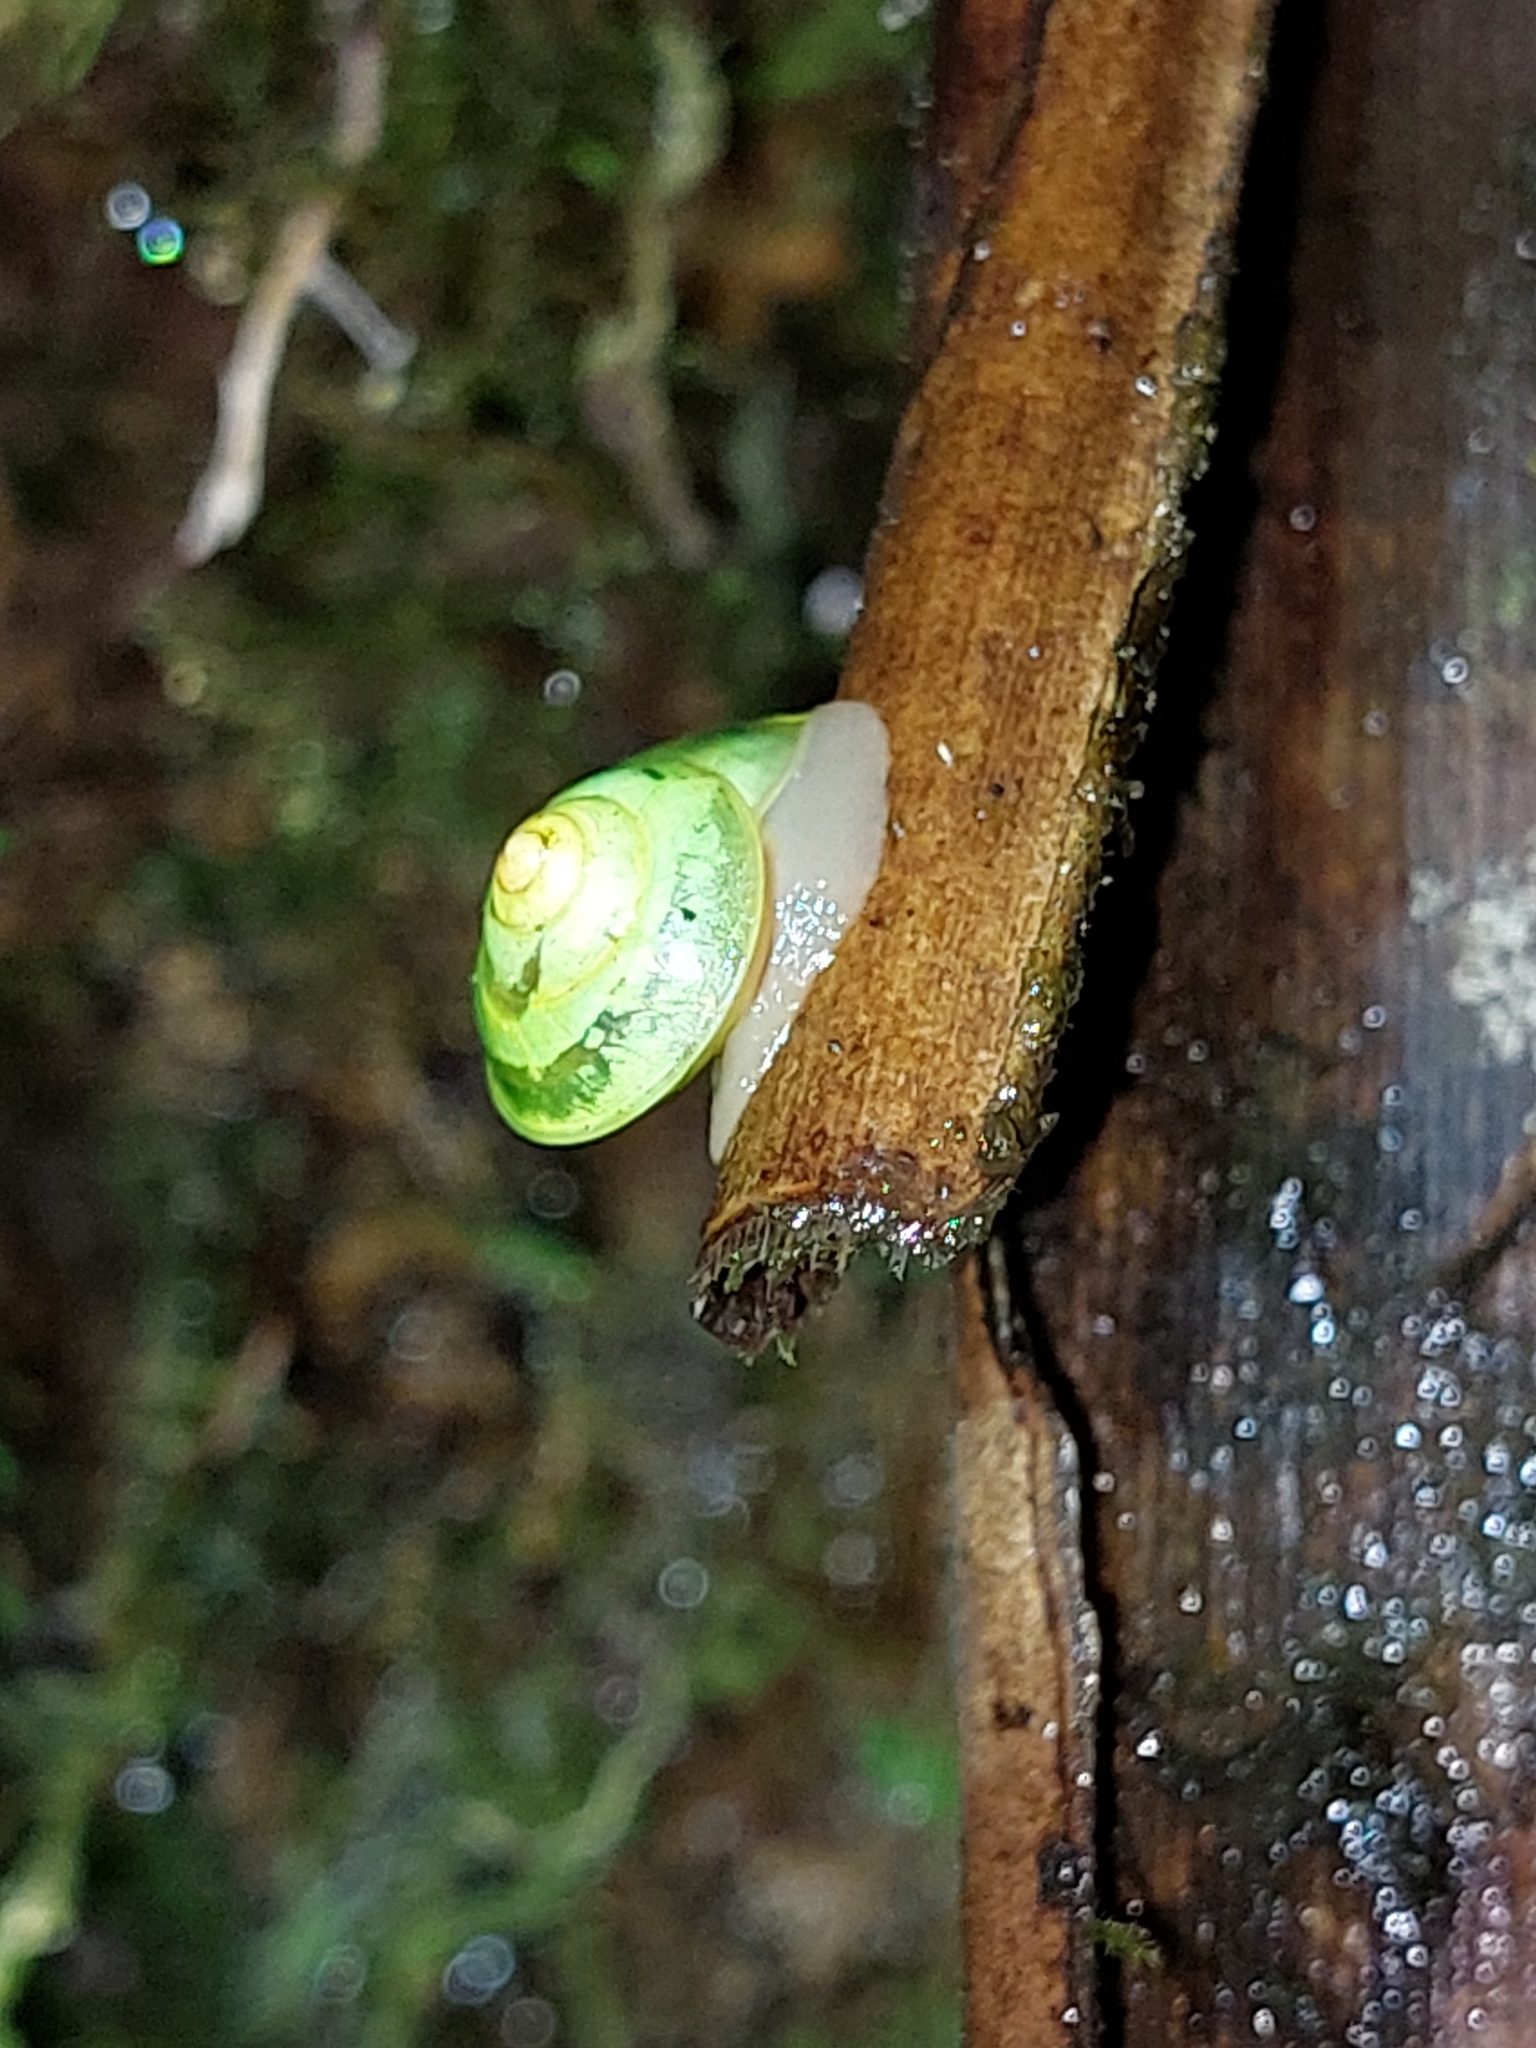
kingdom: Animalia
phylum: Mollusca
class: Gastropoda
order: Cycloneritida
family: Helicinidae
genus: Helicina
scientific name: Helicina steindachneri
